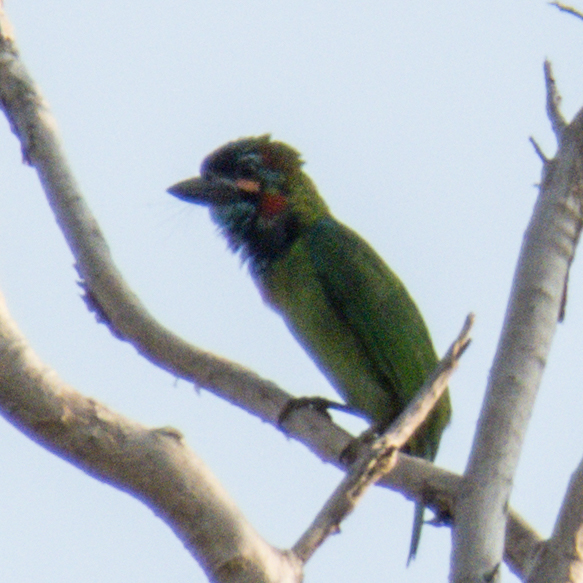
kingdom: Animalia
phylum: Chordata
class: Aves
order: Piciformes
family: Megalaimidae
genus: Psilopogon
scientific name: Psilopogon duvaucelii
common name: Blue-eared barbet
